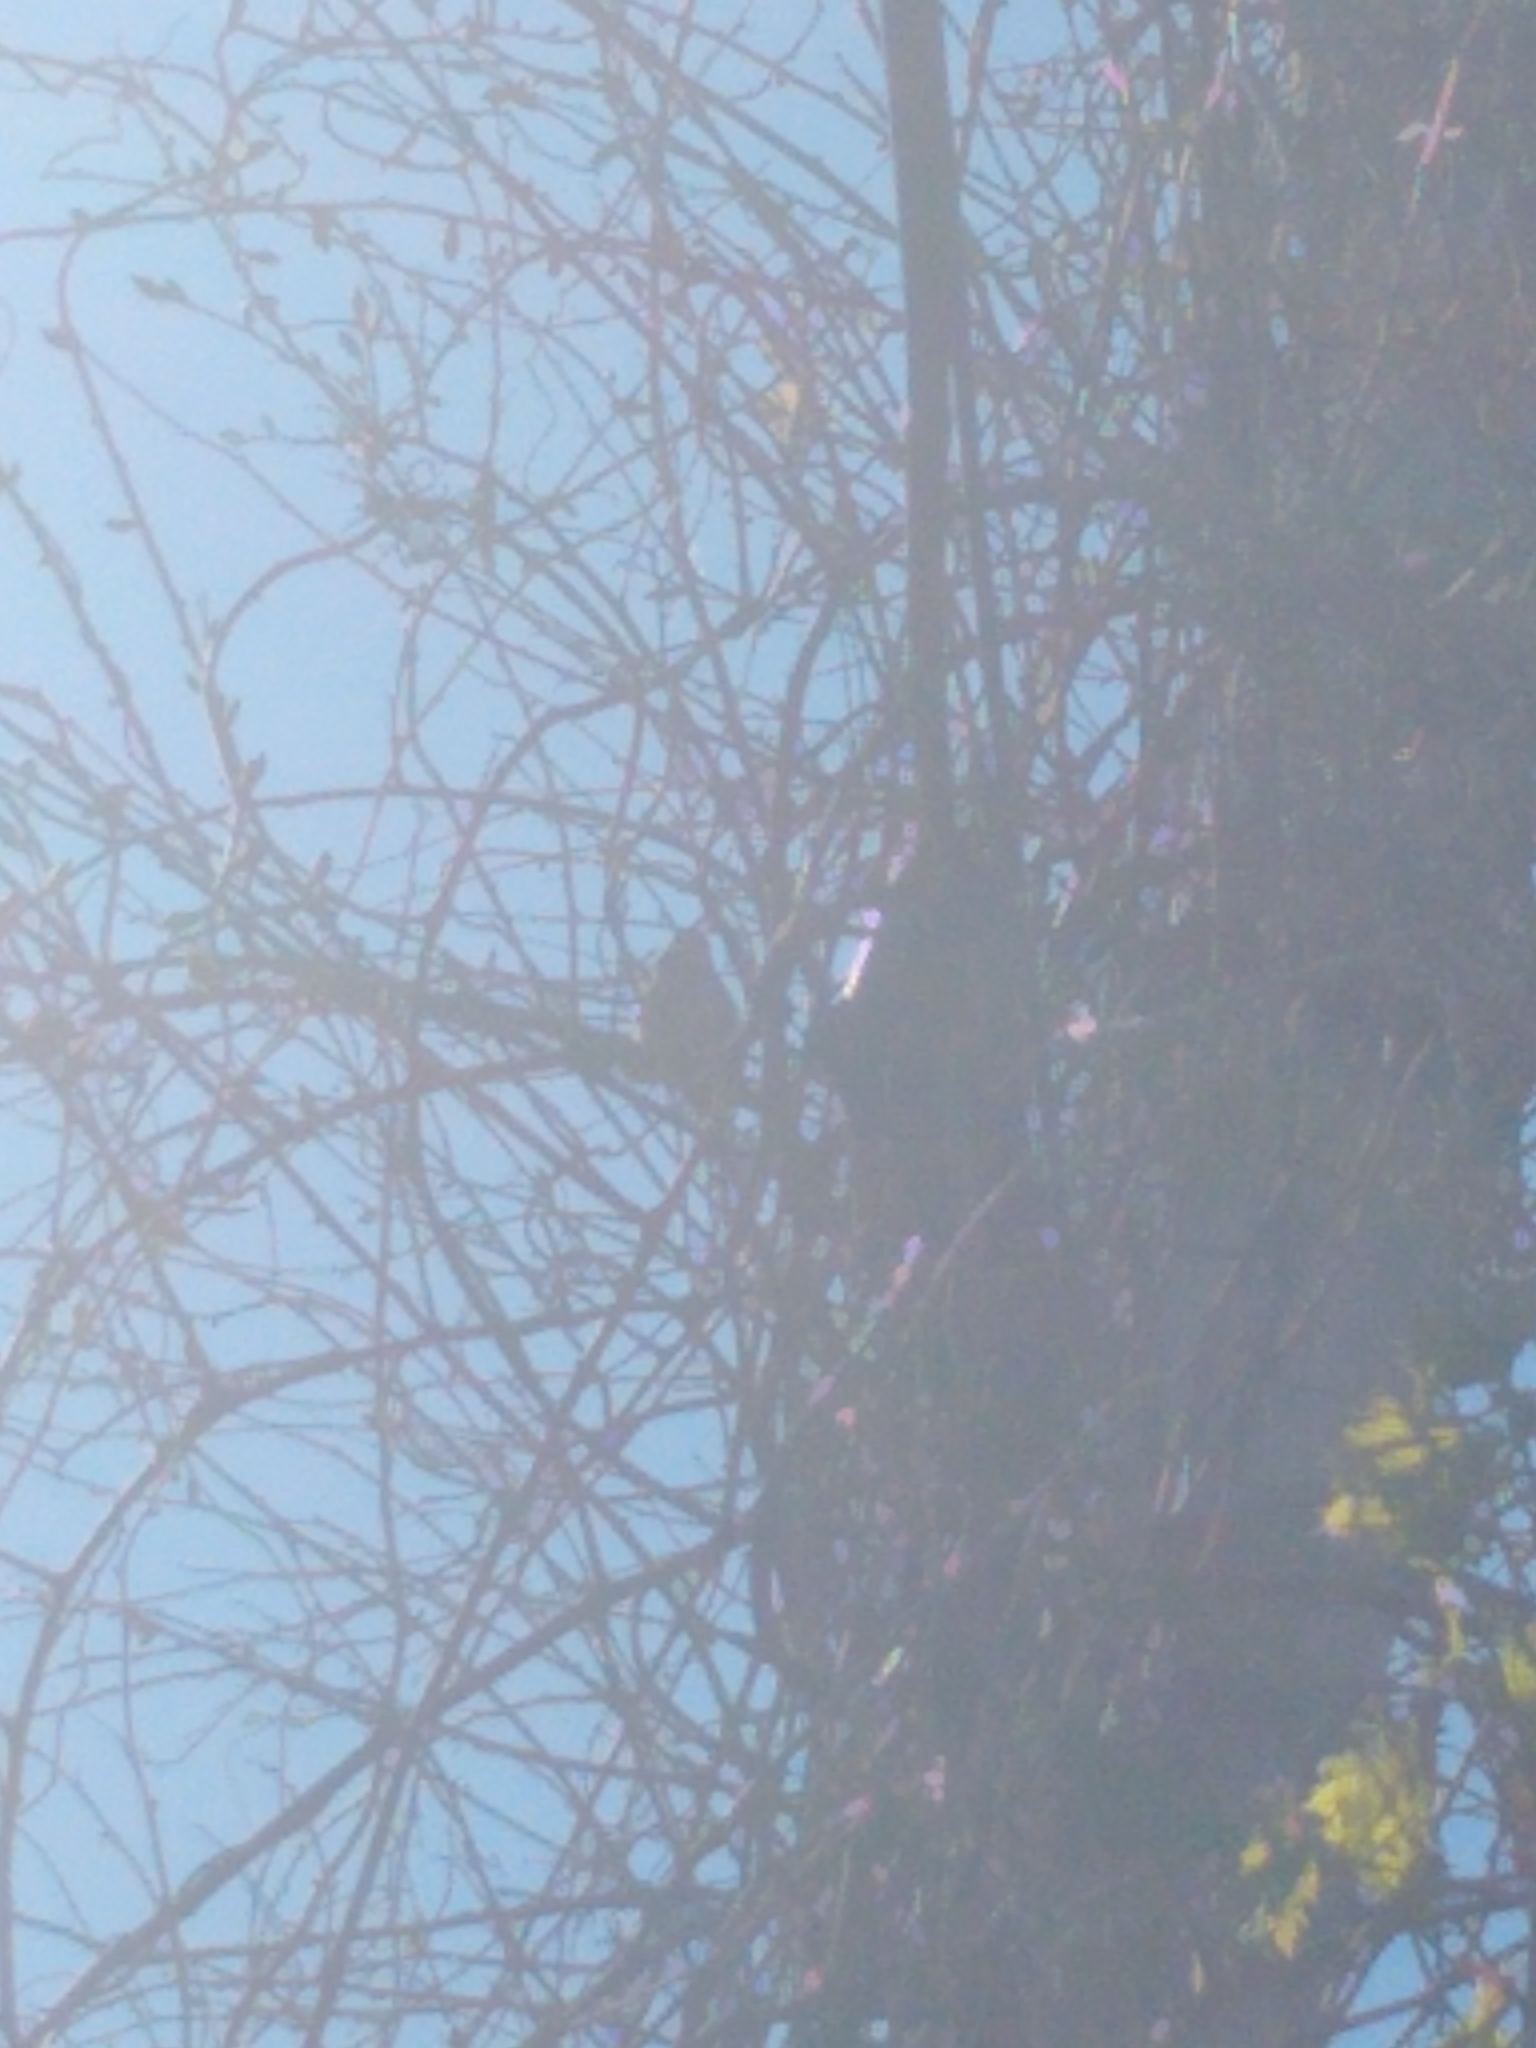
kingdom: Animalia
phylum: Chordata
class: Aves
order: Passeriformes
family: Passeridae
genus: Passer
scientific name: Passer domesticus
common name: House sparrow
